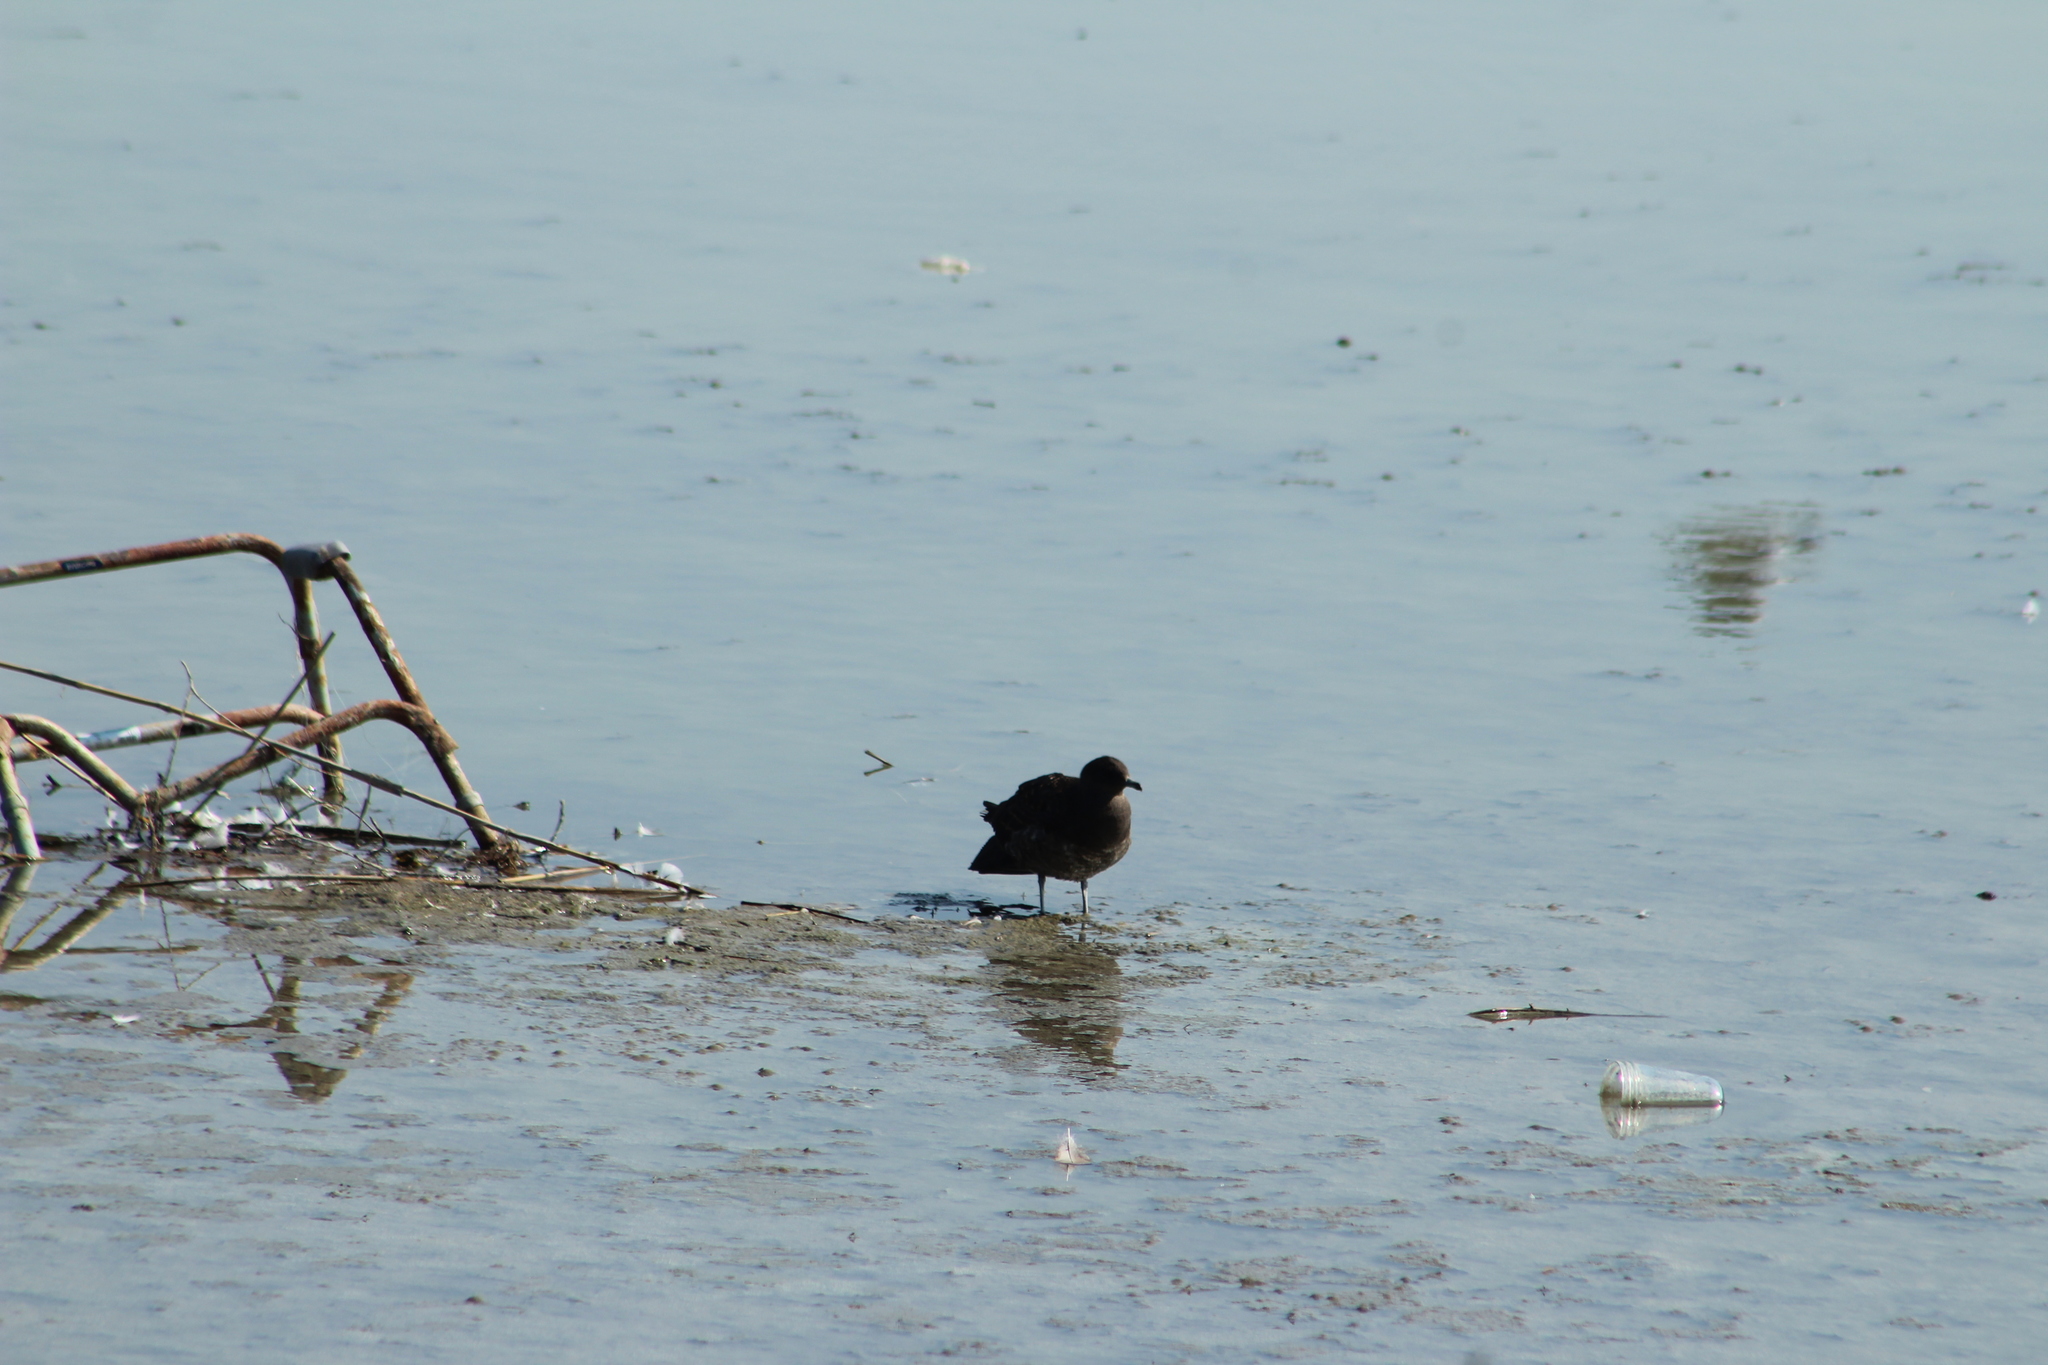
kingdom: Animalia
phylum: Chordata
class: Aves
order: Charadriiformes
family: Stercorariidae
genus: Stercorarius
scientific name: Stercorarius parasiticus
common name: Parasitic jaeger
